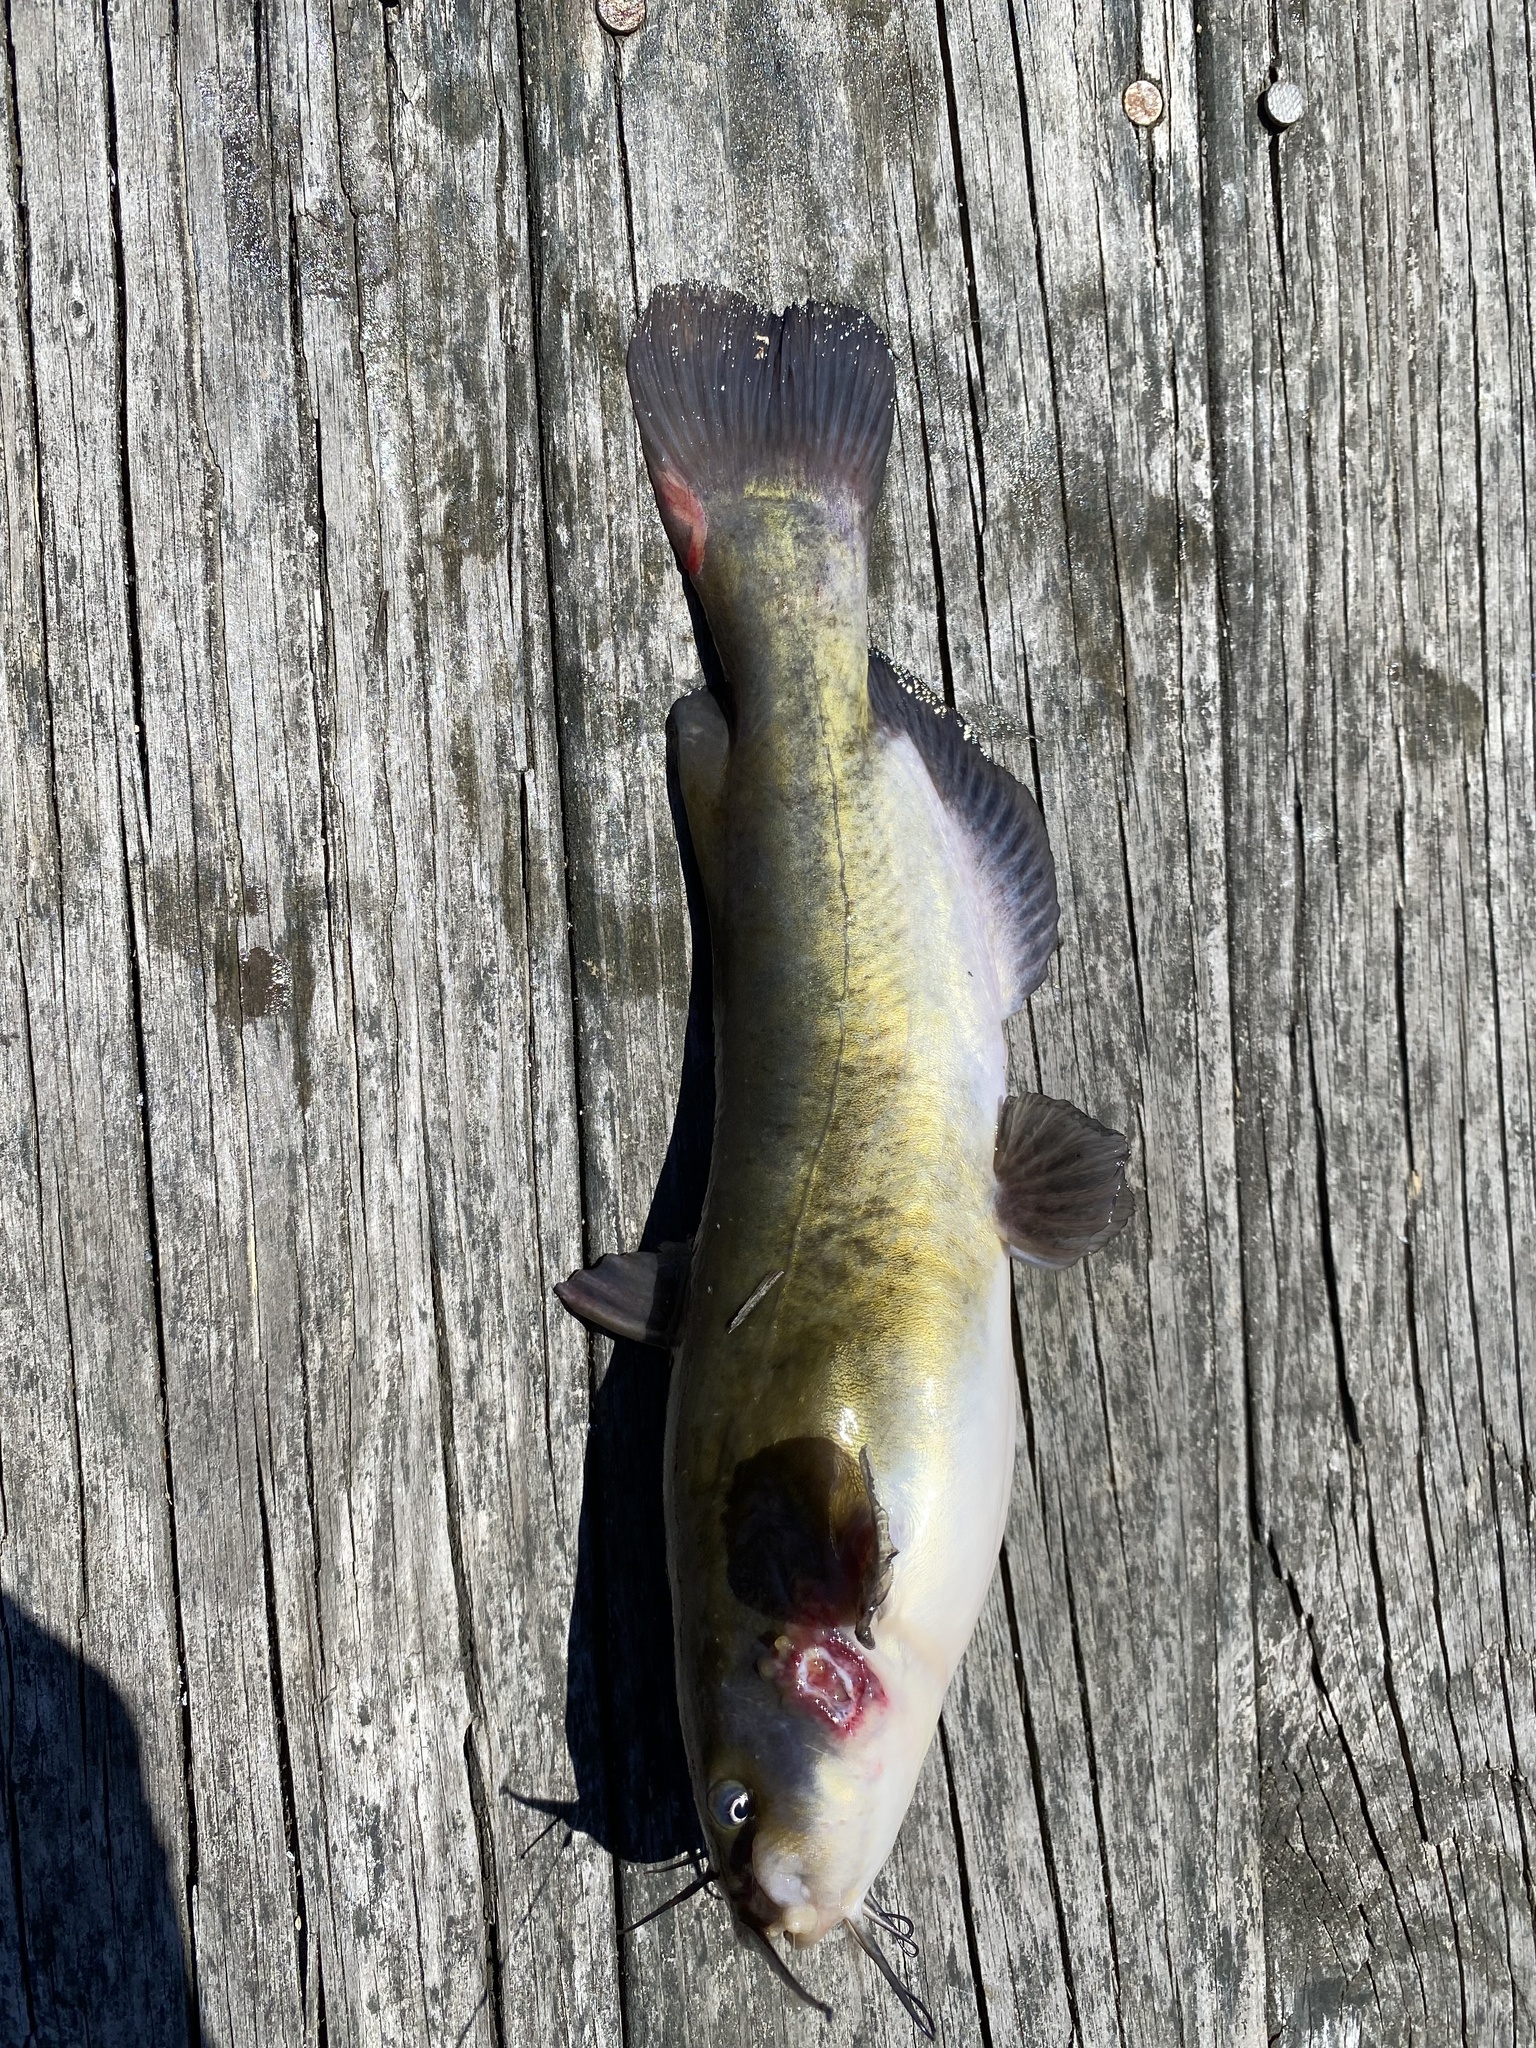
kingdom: Animalia
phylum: Chordata
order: Siluriformes
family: Ictaluridae
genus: Ameiurus
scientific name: Ameiurus nebulosus
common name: Brown bullhead
